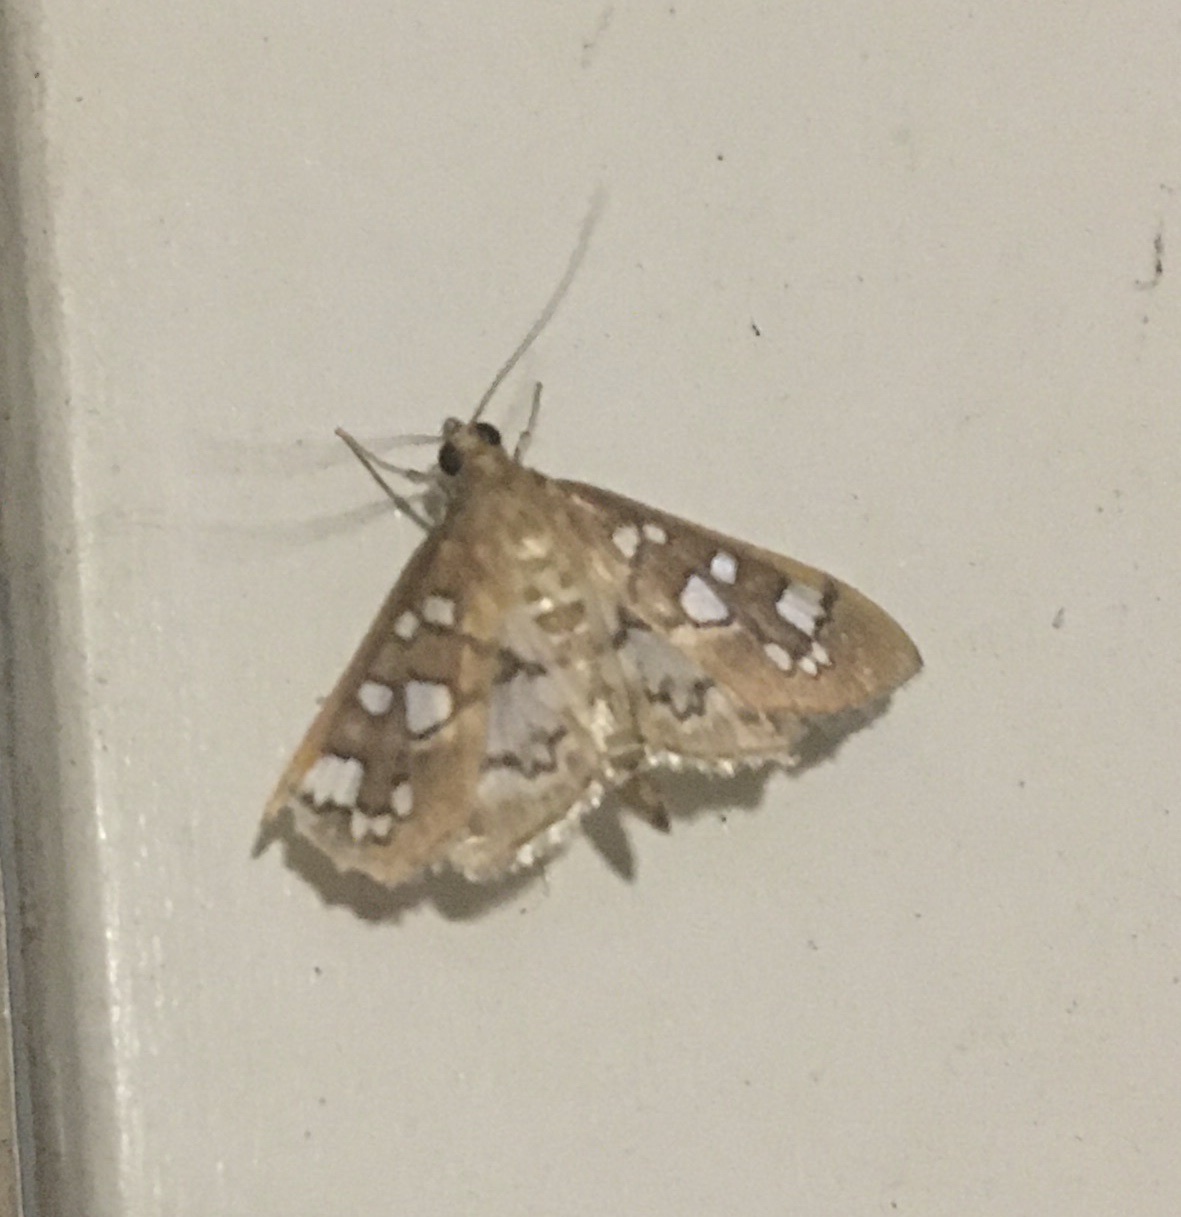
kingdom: Animalia
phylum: Arthropoda
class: Insecta
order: Lepidoptera
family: Crambidae
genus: Samea
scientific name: Samea baccatalis
